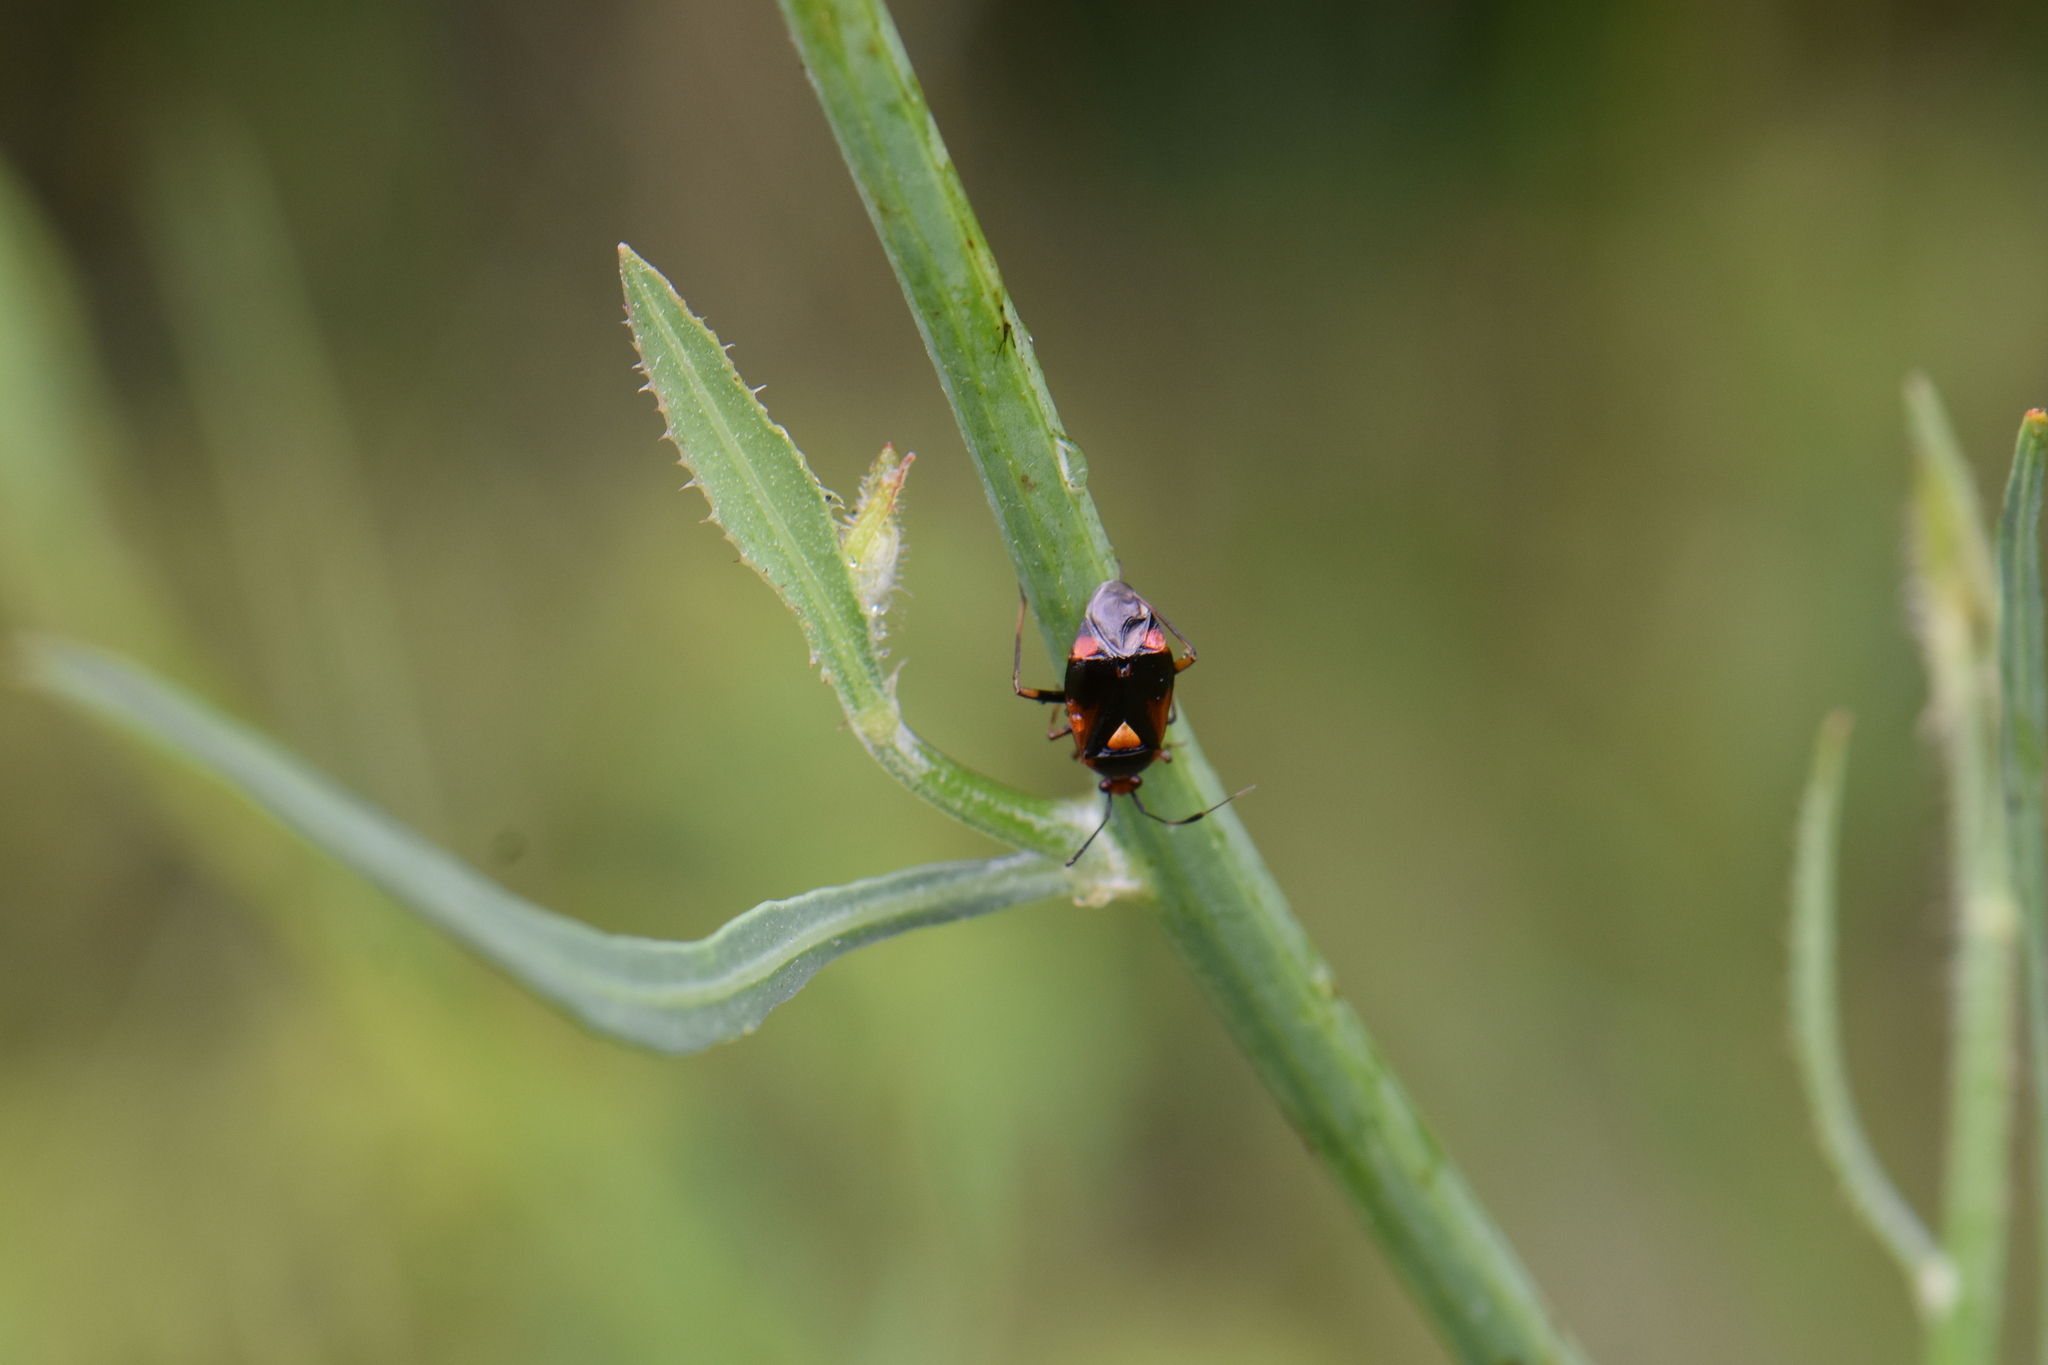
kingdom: Animalia
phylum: Arthropoda
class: Insecta
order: Hemiptera
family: Miridae
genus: Deraeocoris
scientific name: Deraeocoris schach
